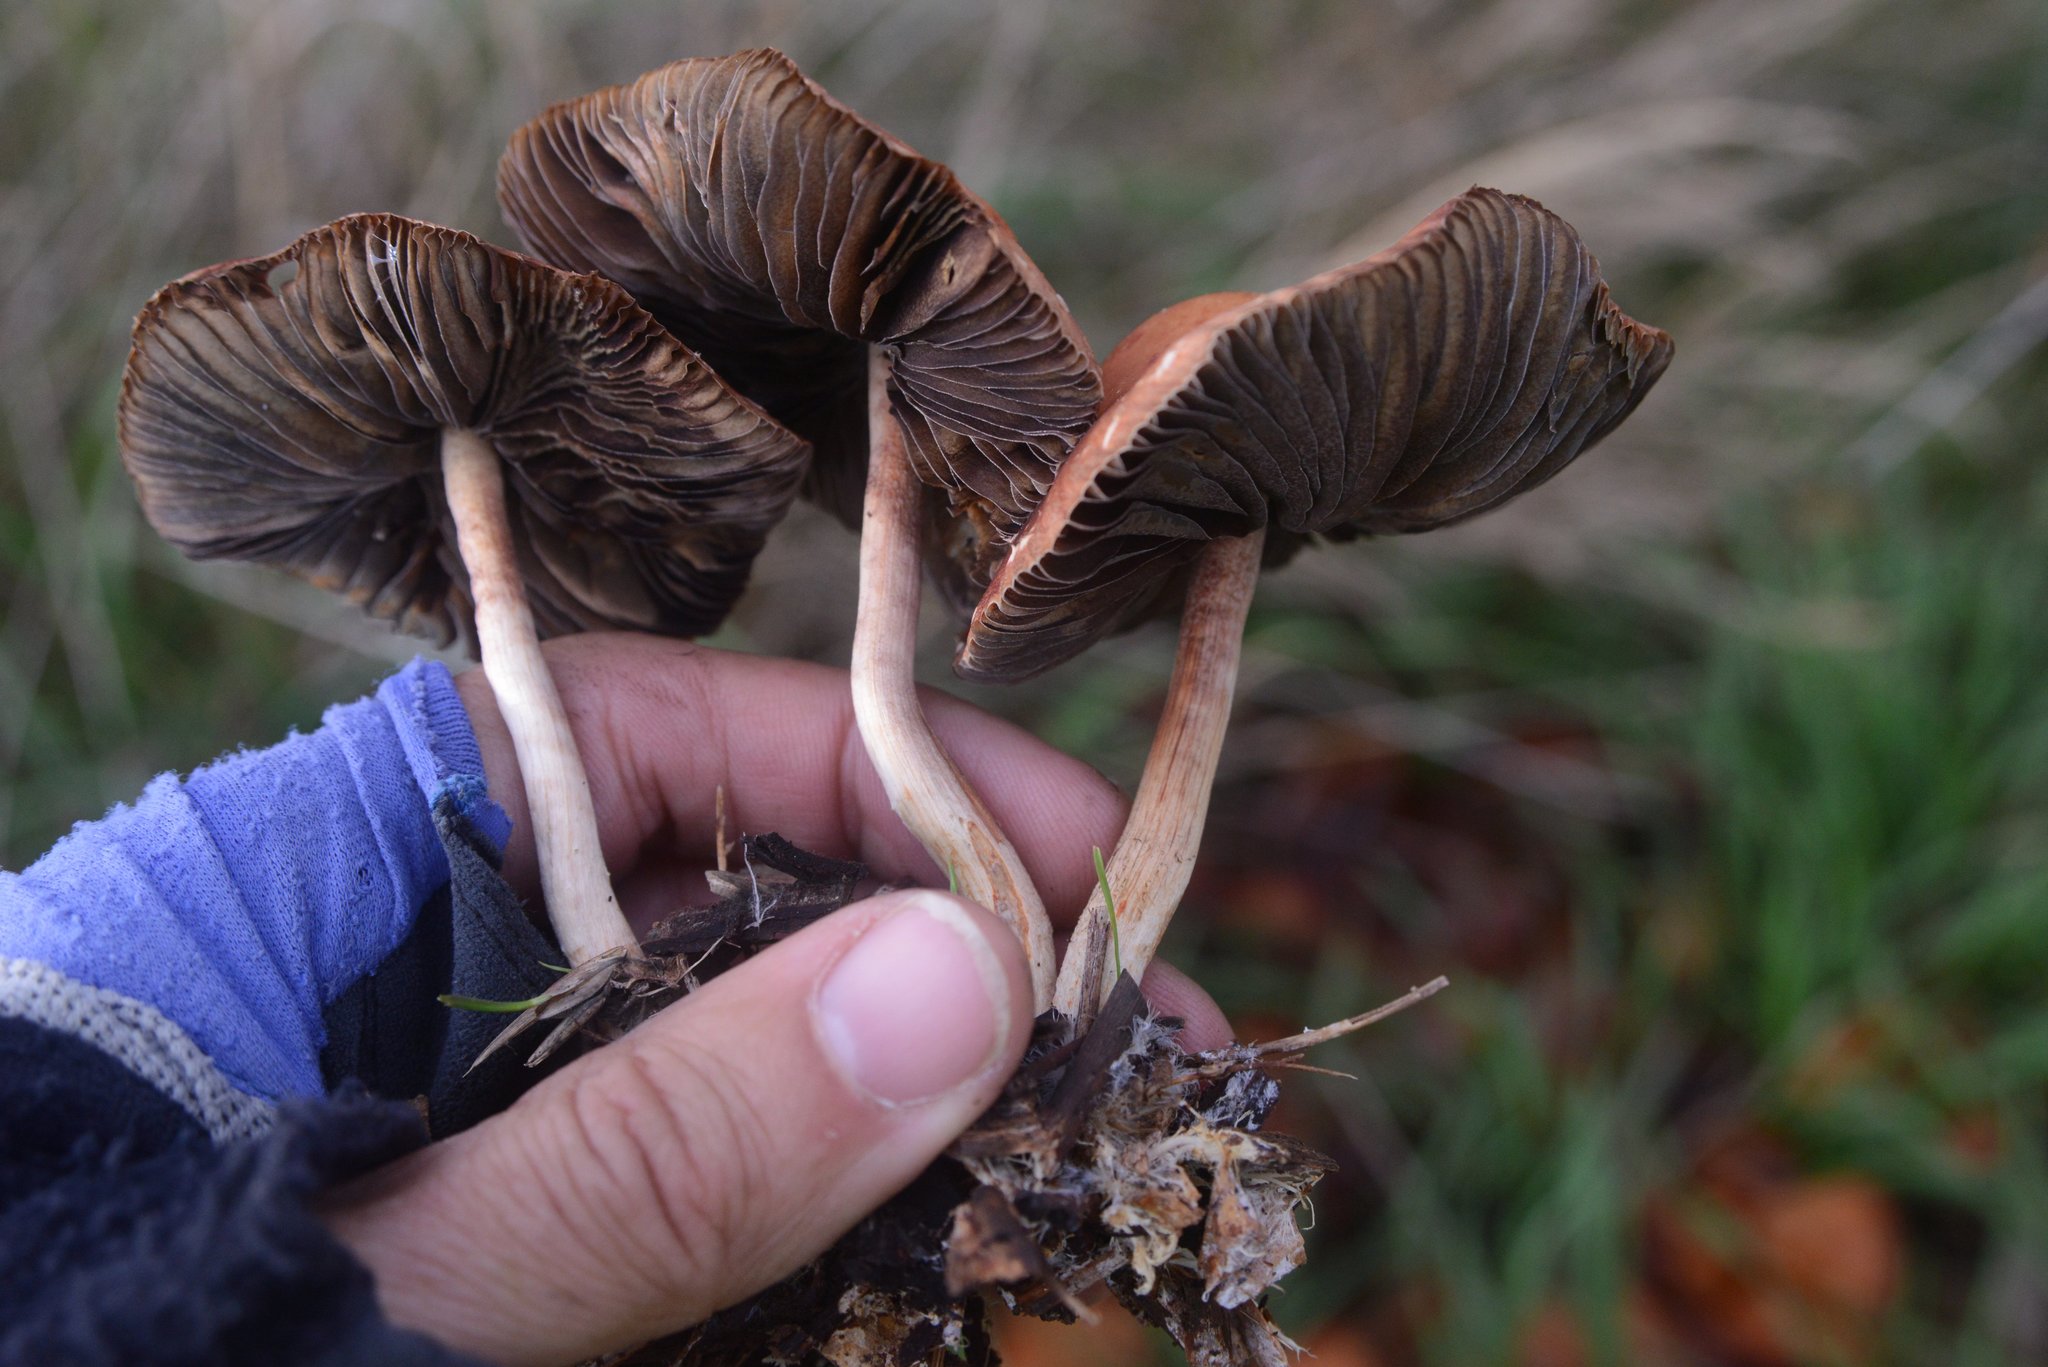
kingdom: Fungi
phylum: Basidiomycota
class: Agaricomycetes
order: Agaricales
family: Strophariaceae
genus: Leratiomyces
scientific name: Leratiomyces ceres
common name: Redlead roundhead
